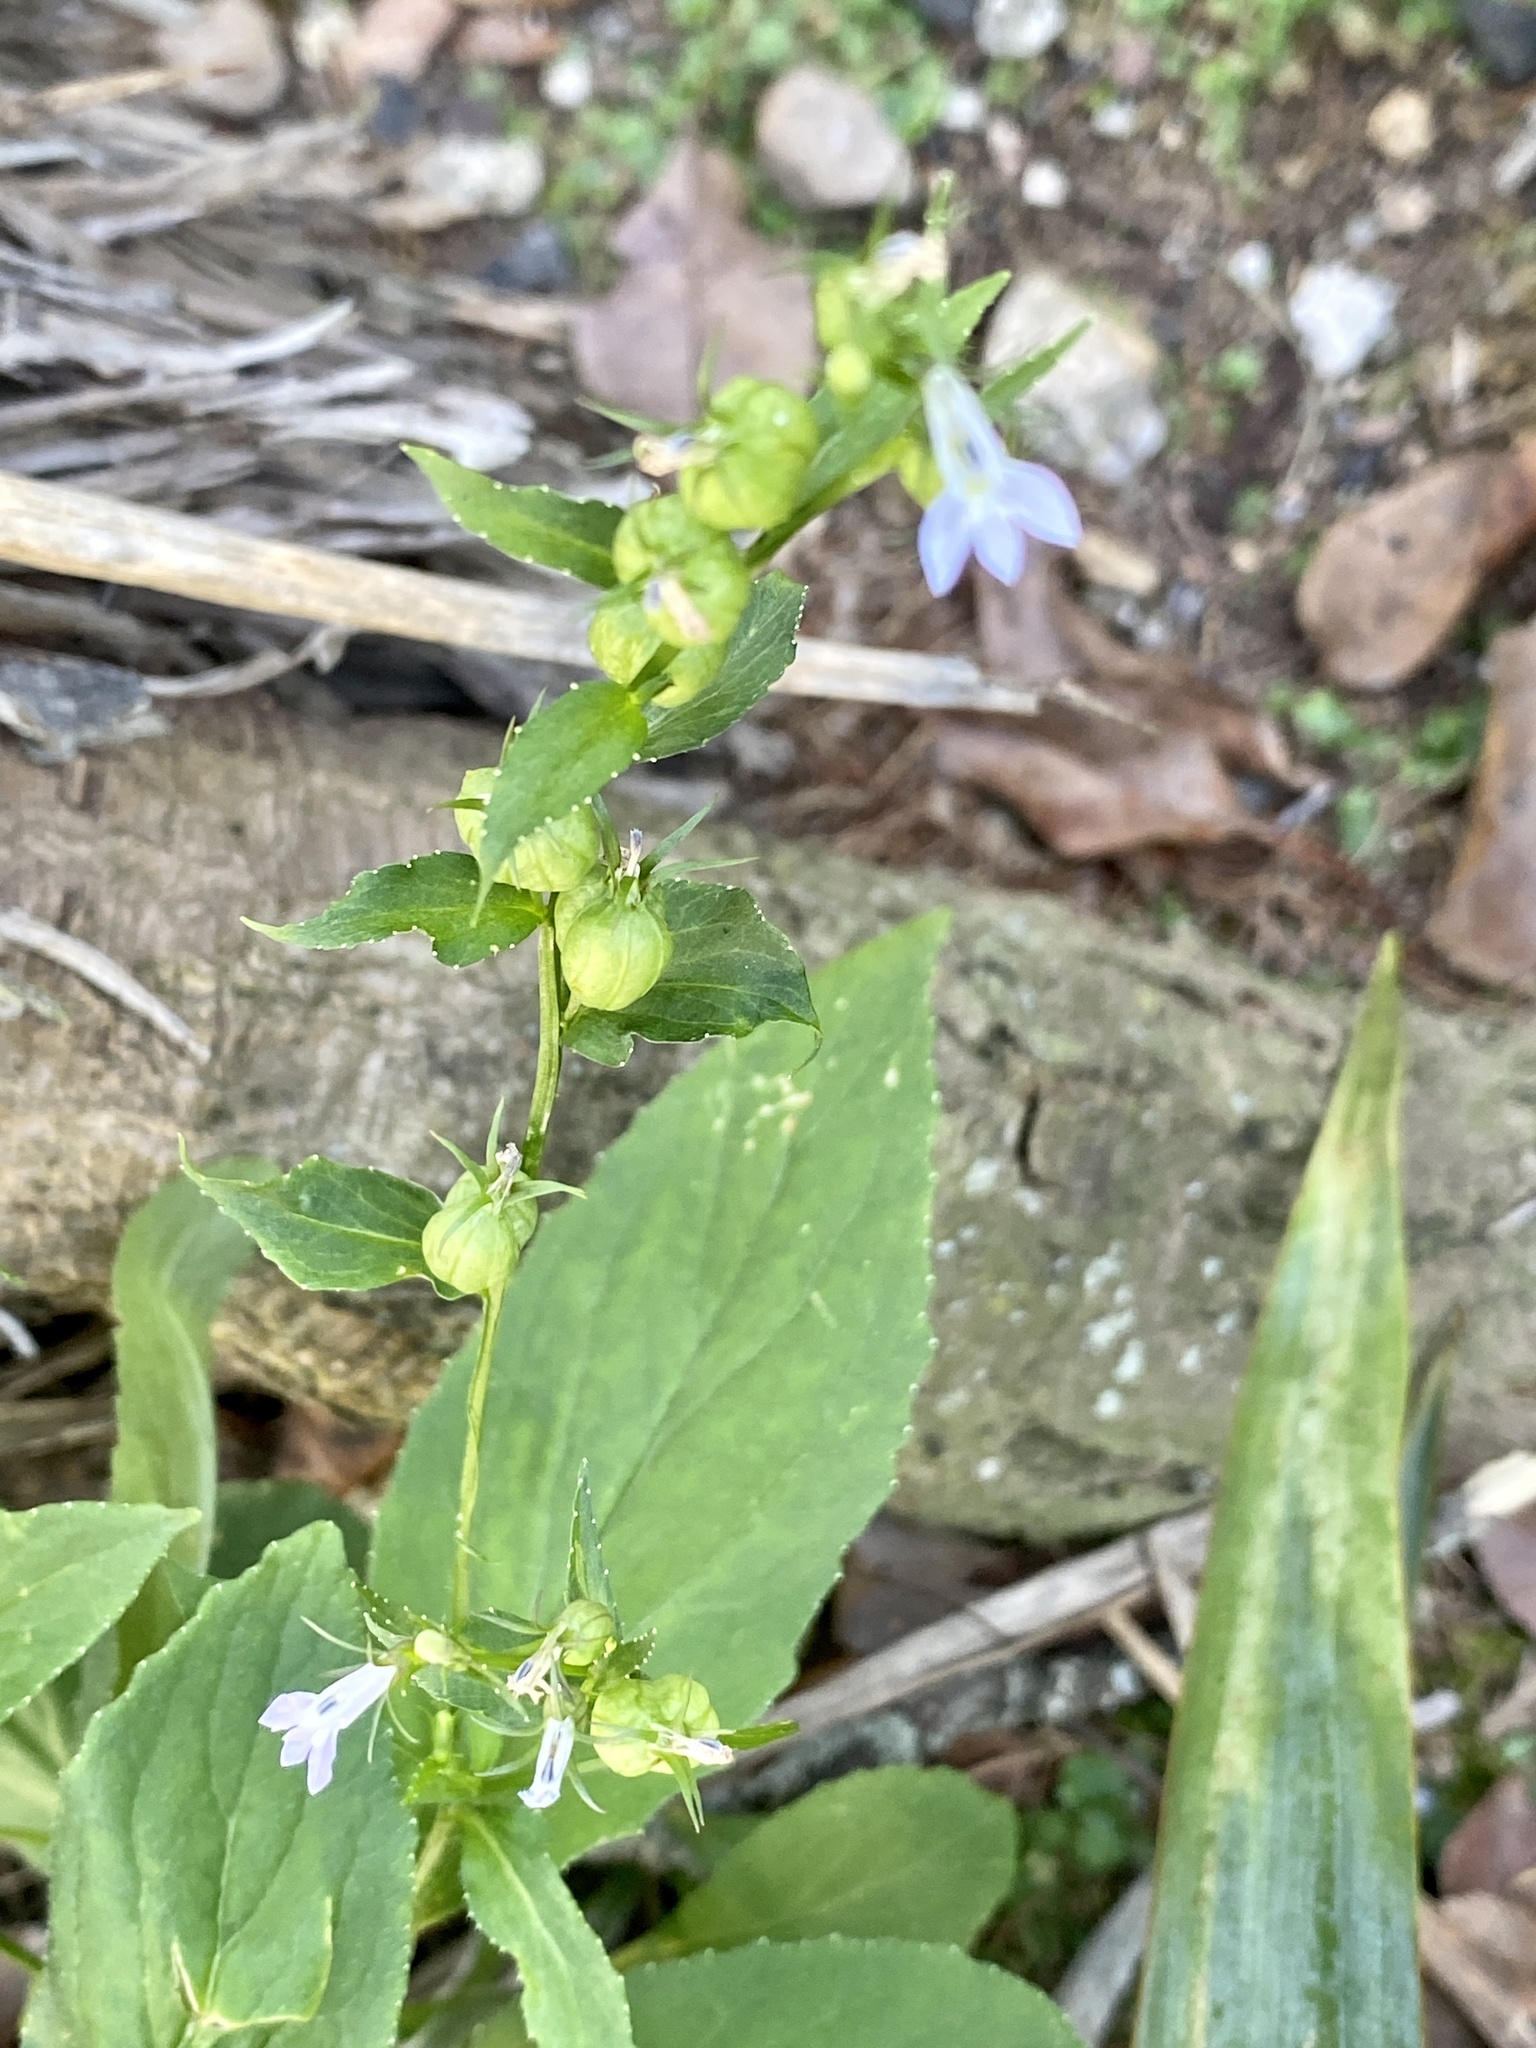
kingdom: Plantae
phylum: Tracheophyta
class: Magnoliopsida
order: Asterales
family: Campanulaceae
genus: Lobelia
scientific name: Lobelia inflata
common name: Indian tobacco
